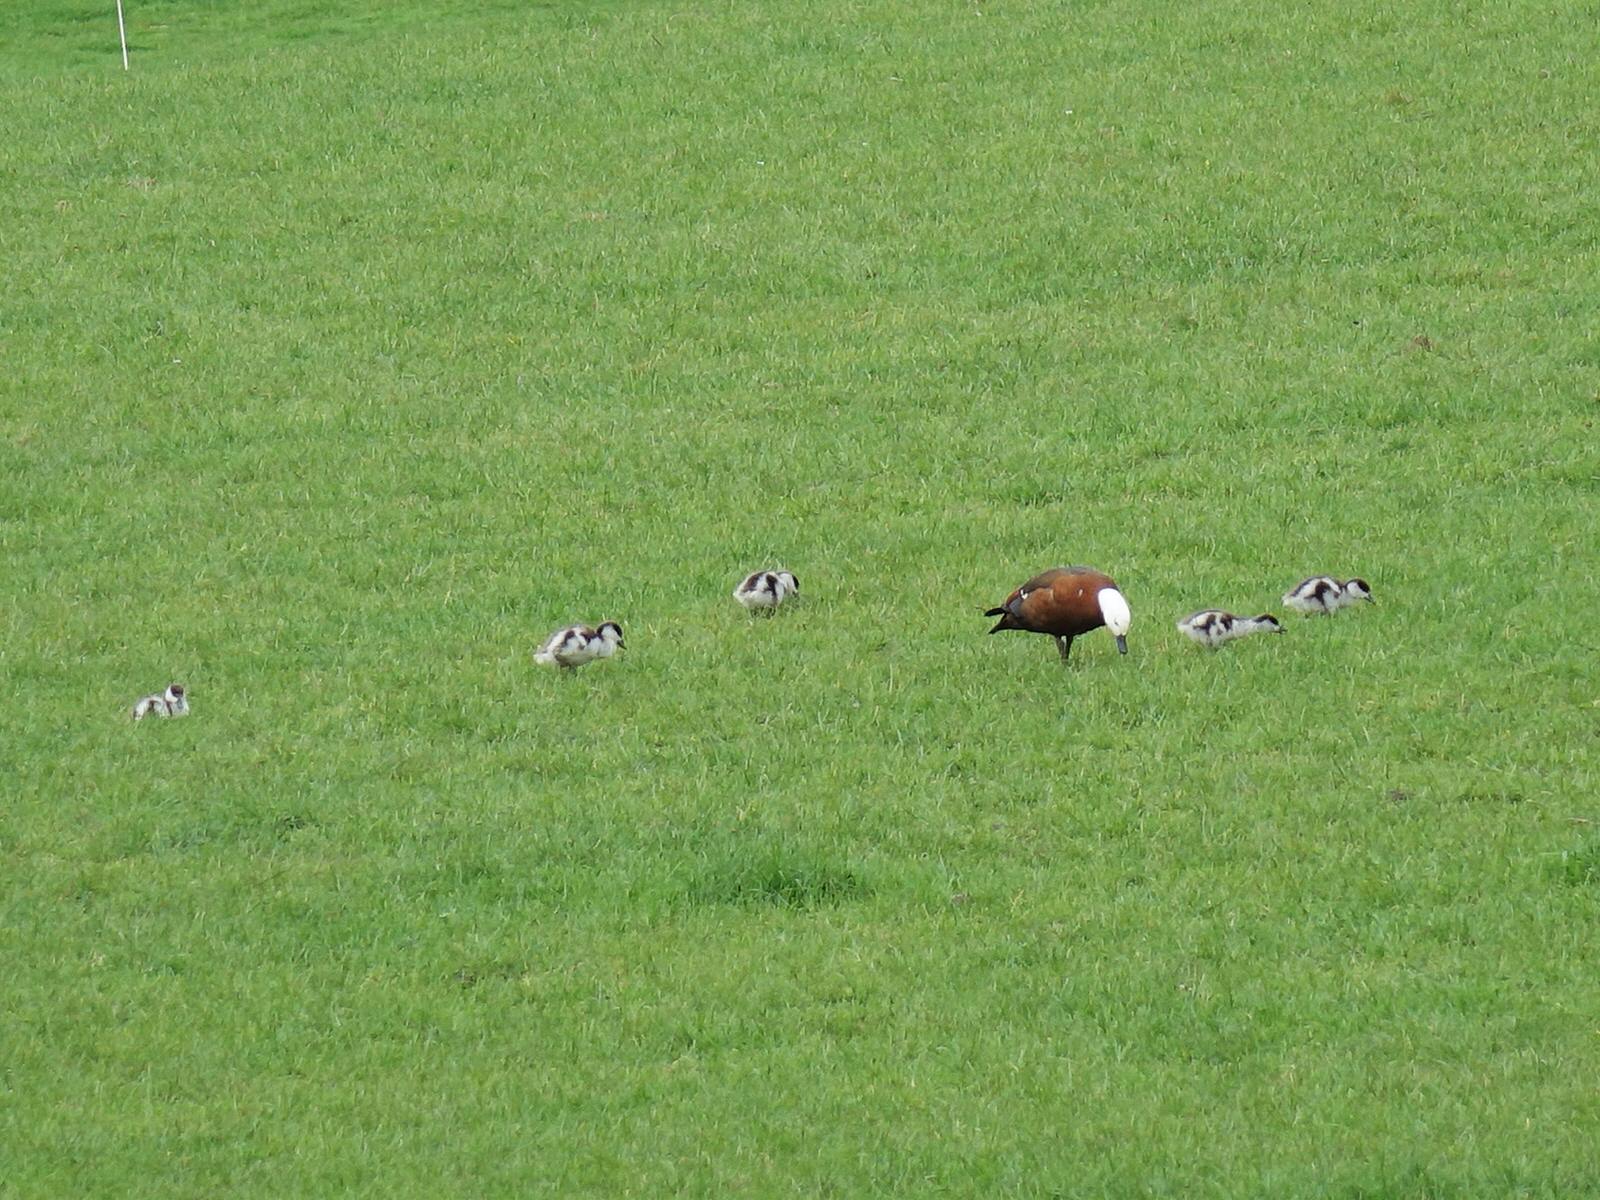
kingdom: Animalia
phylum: Chordata
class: Aves
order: Anseriformes
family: Anatidae
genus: Tadorna
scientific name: Tadorna variegata
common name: Paradise shelduck
